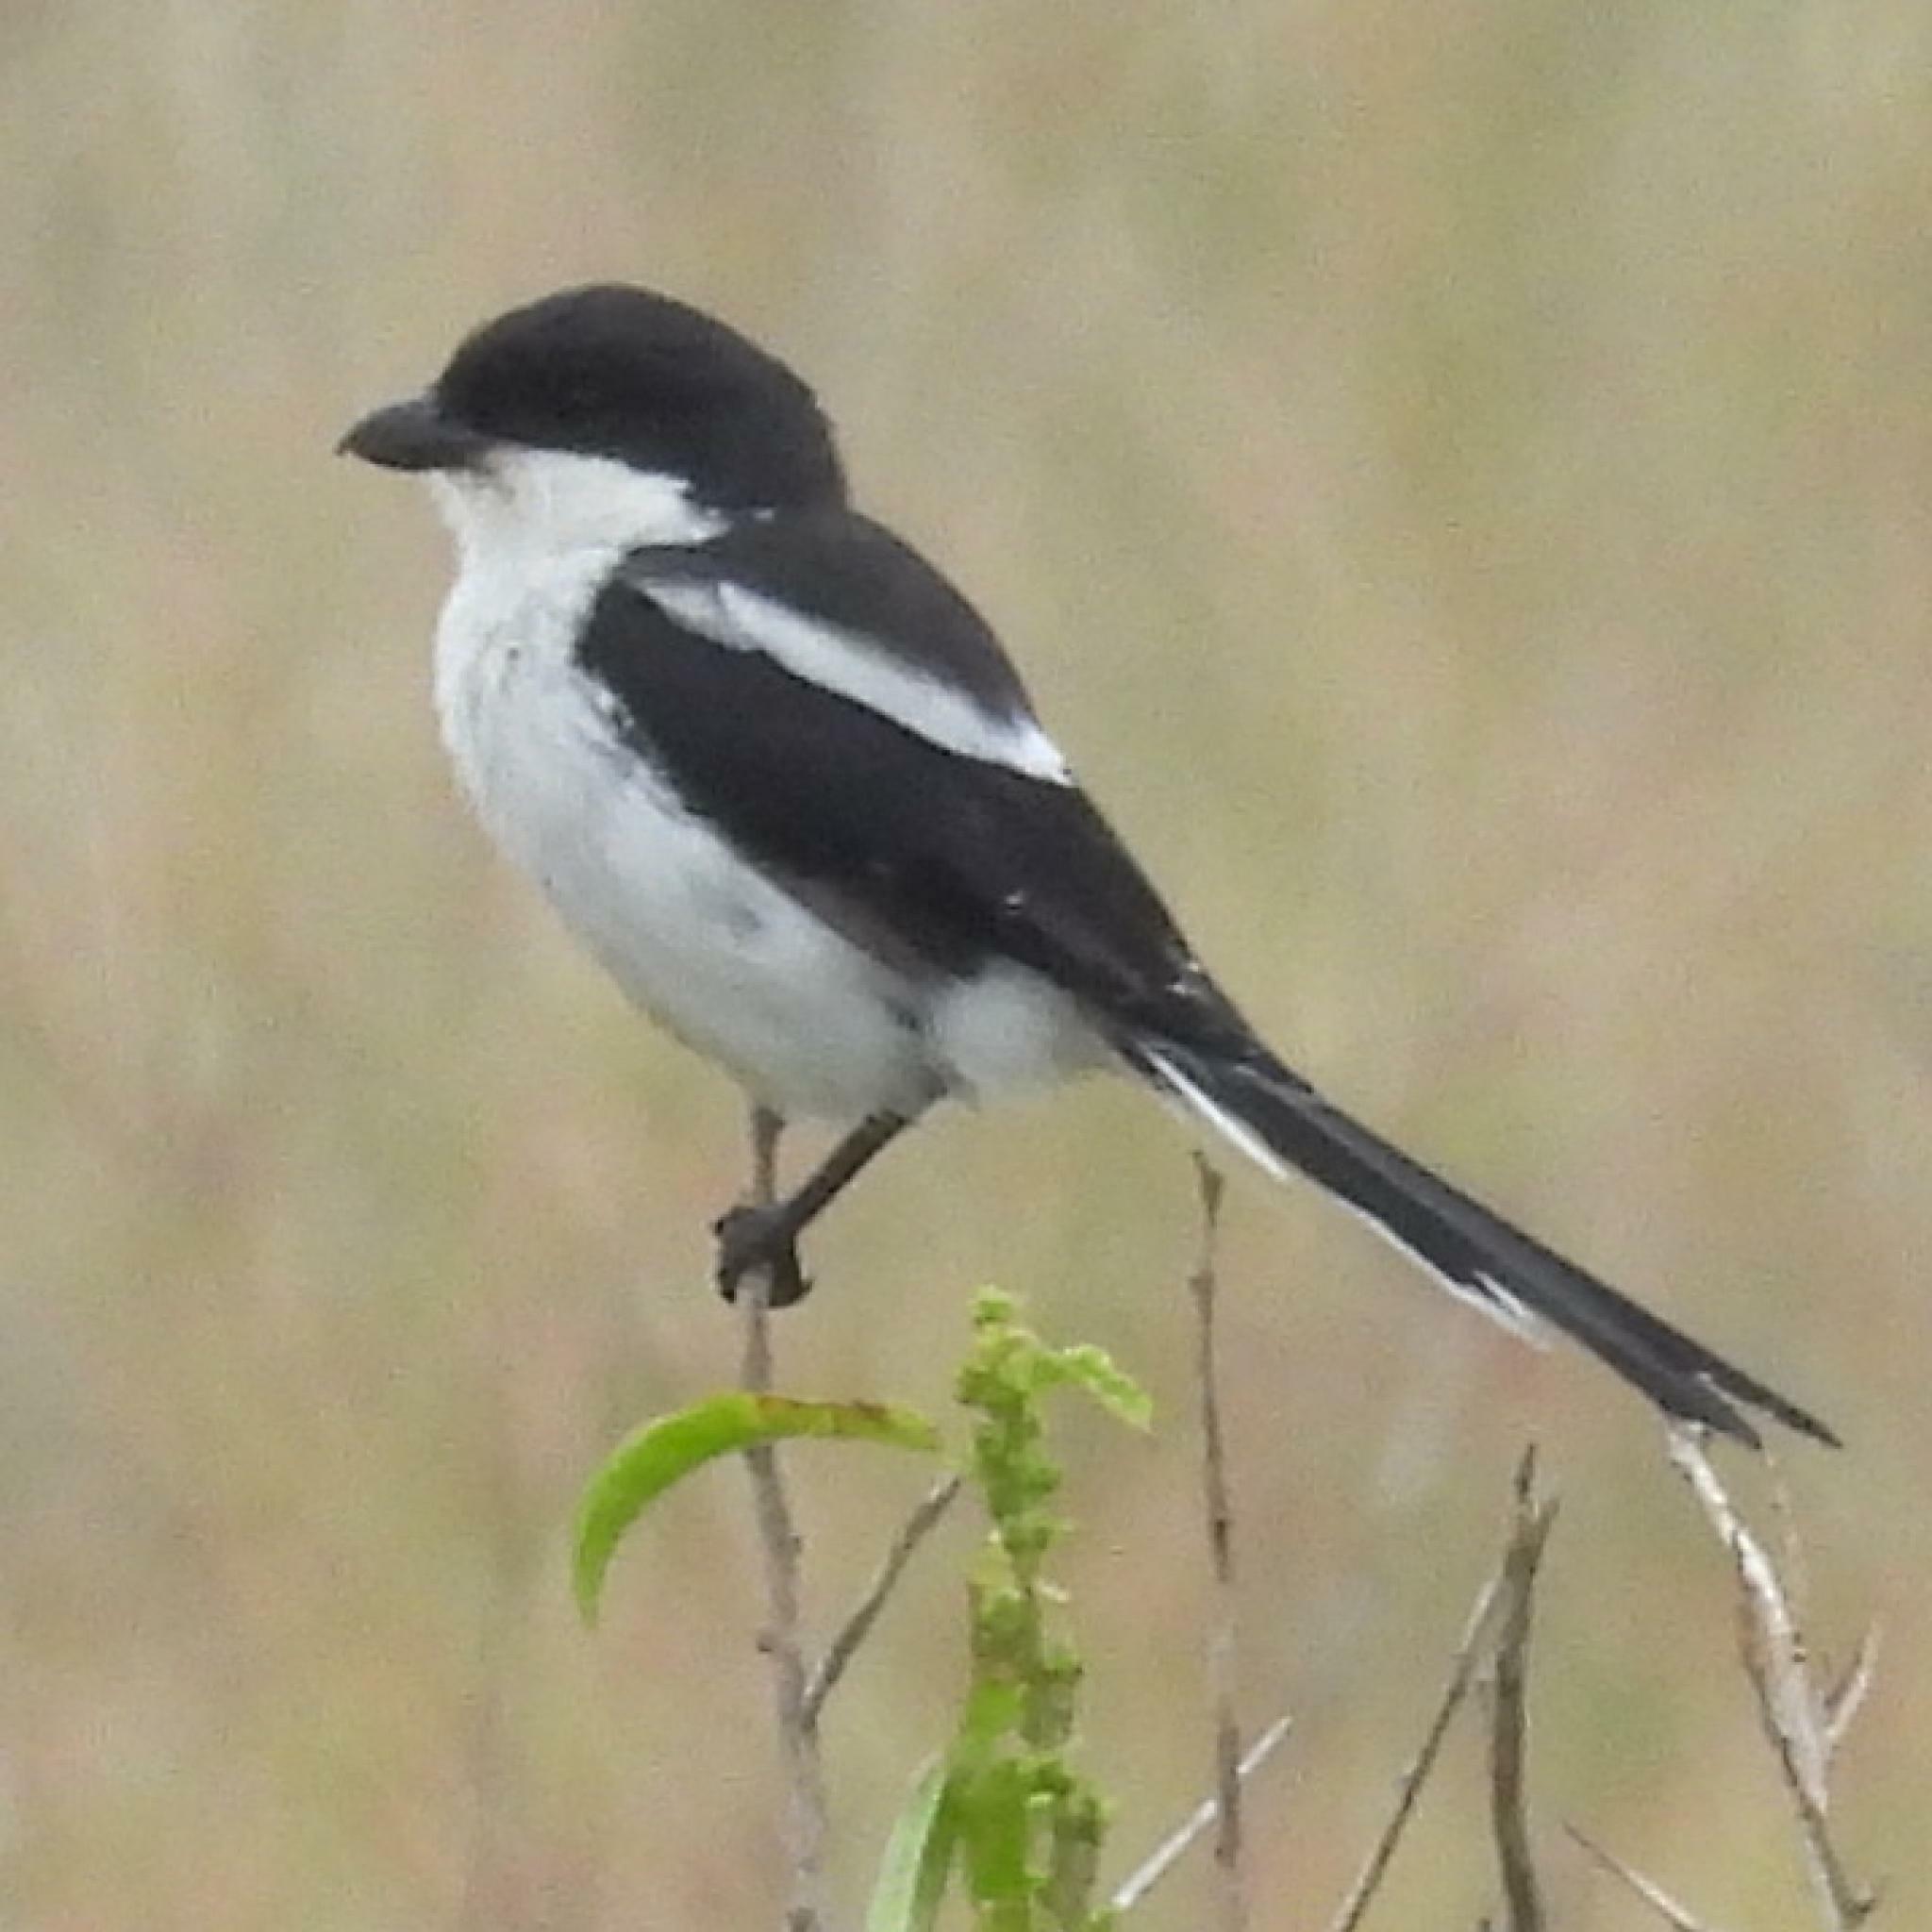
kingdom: Animalia
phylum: Chordata
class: Aves
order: Passeriformes
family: Laniidae
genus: Lanius
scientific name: Lanius collaris
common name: Southern fiscal
